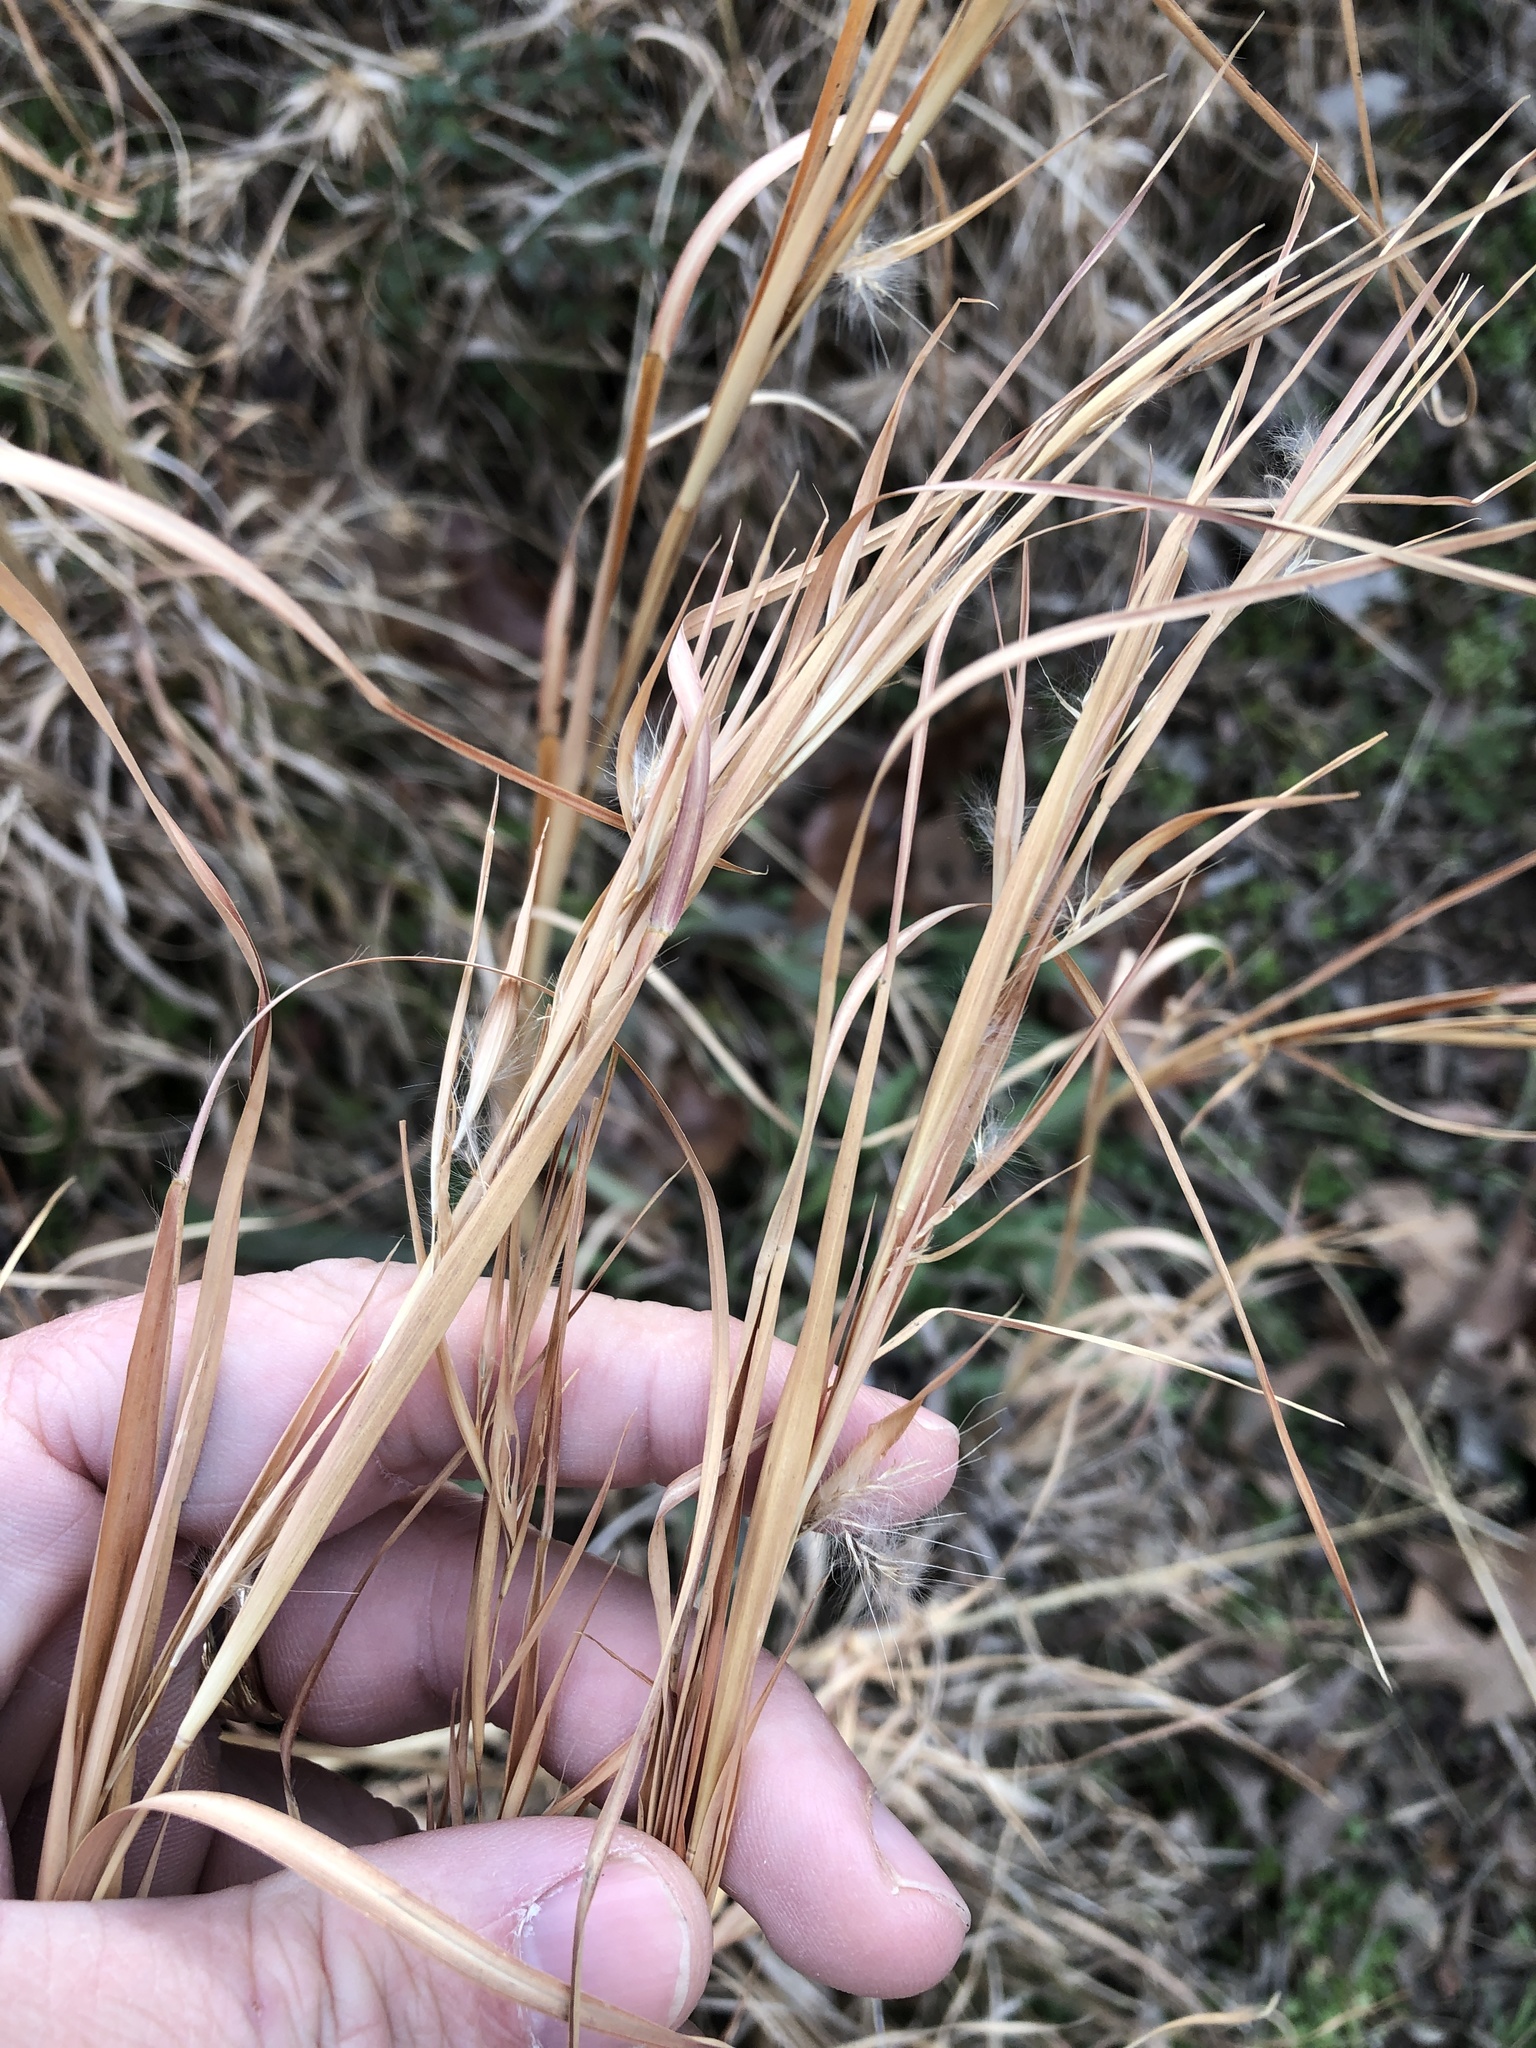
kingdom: Plantae
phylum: Tracheophyta
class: Liliopsida
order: Poales
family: Poaceae
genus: Andropogon
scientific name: Andropogon virginicus
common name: Broomsedge bluestem
